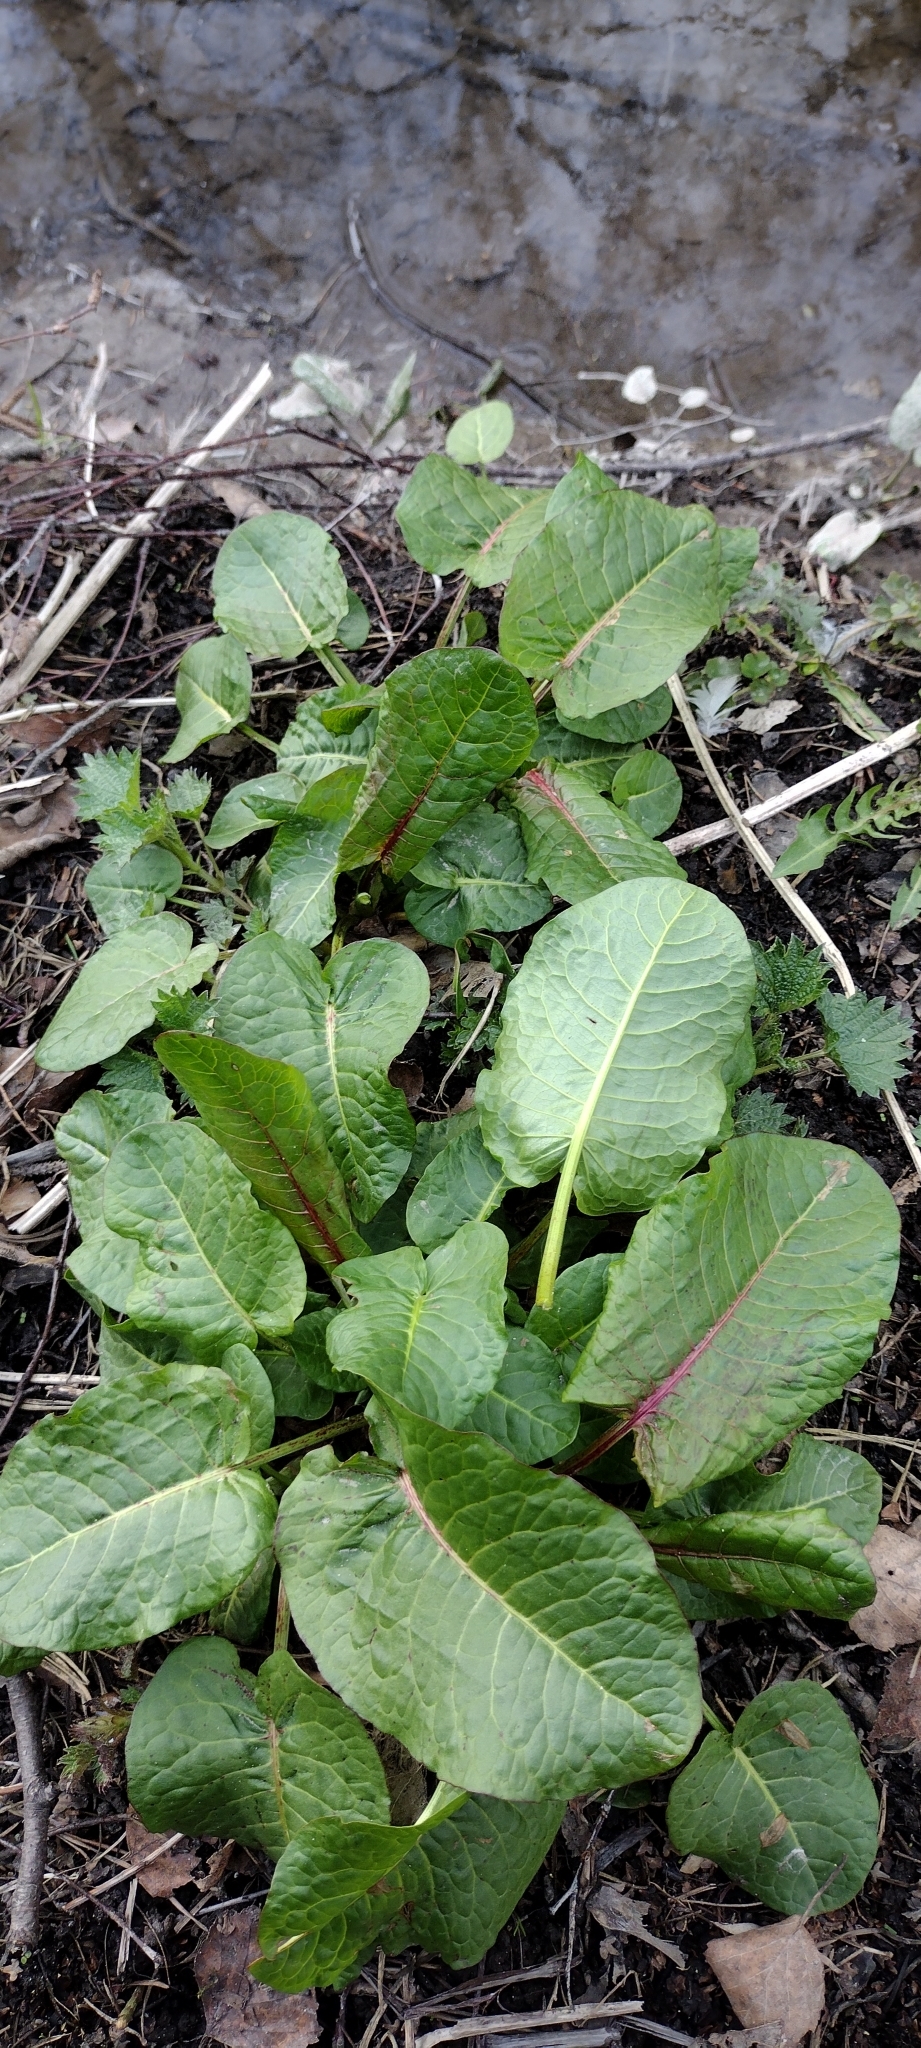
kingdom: Plantae
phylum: Tracheophyta
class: Magnoliopsida
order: Caryophyllales
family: Polygonaceae
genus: Rumex
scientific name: Rumex obtusifolius
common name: Bitter dock
